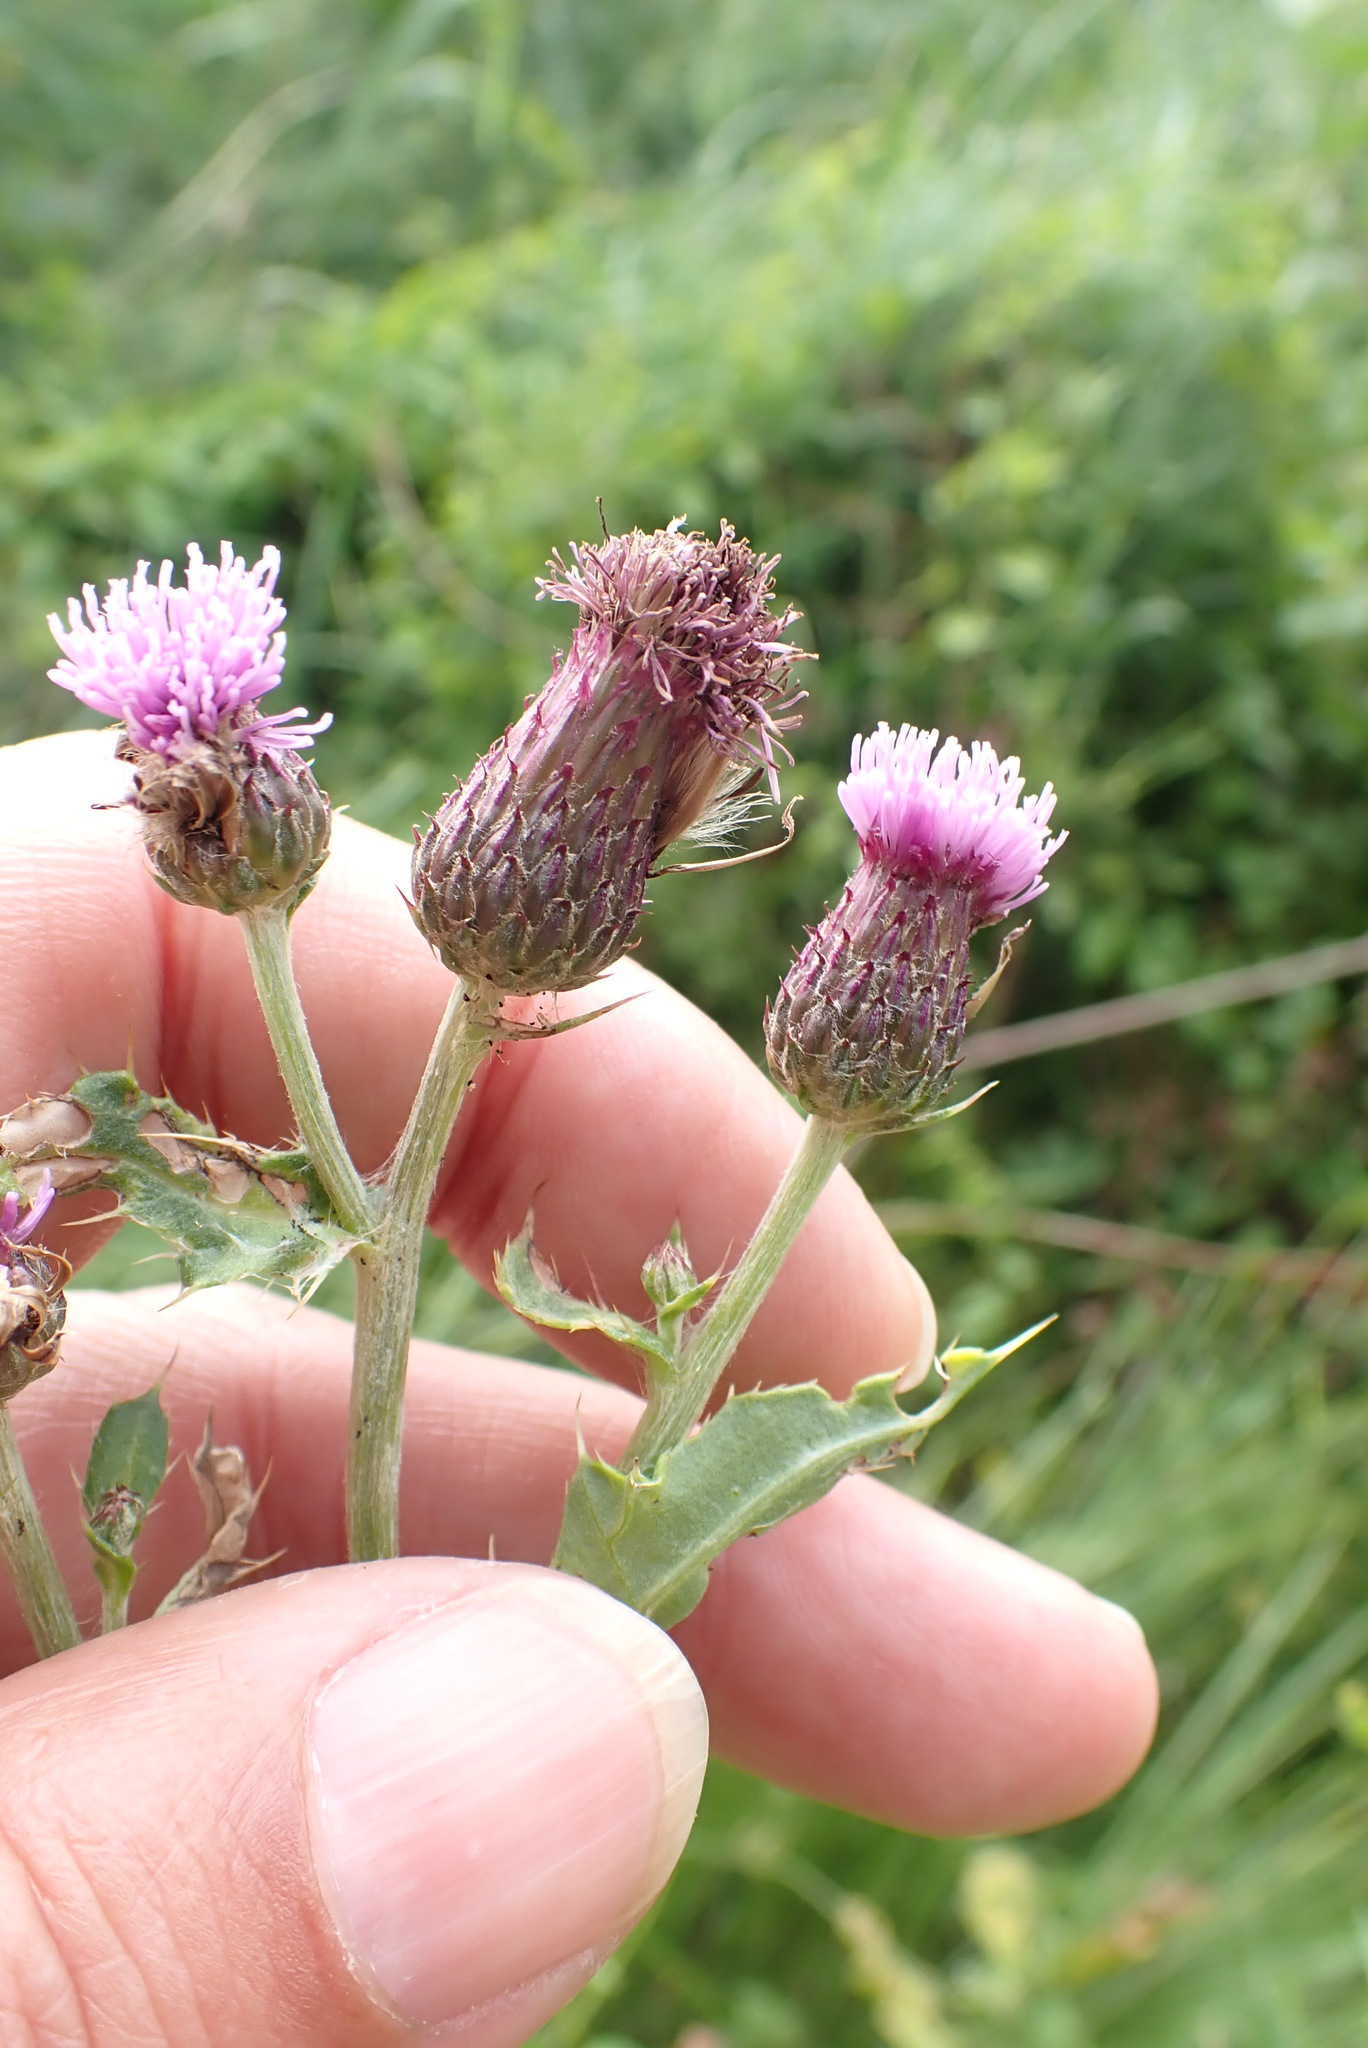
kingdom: Plantae
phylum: Tracheophyta
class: Magnoliopsida
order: Asterales
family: Asteraceae
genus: Cirsium
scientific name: Cirsium arvense
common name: Creeping thistle
